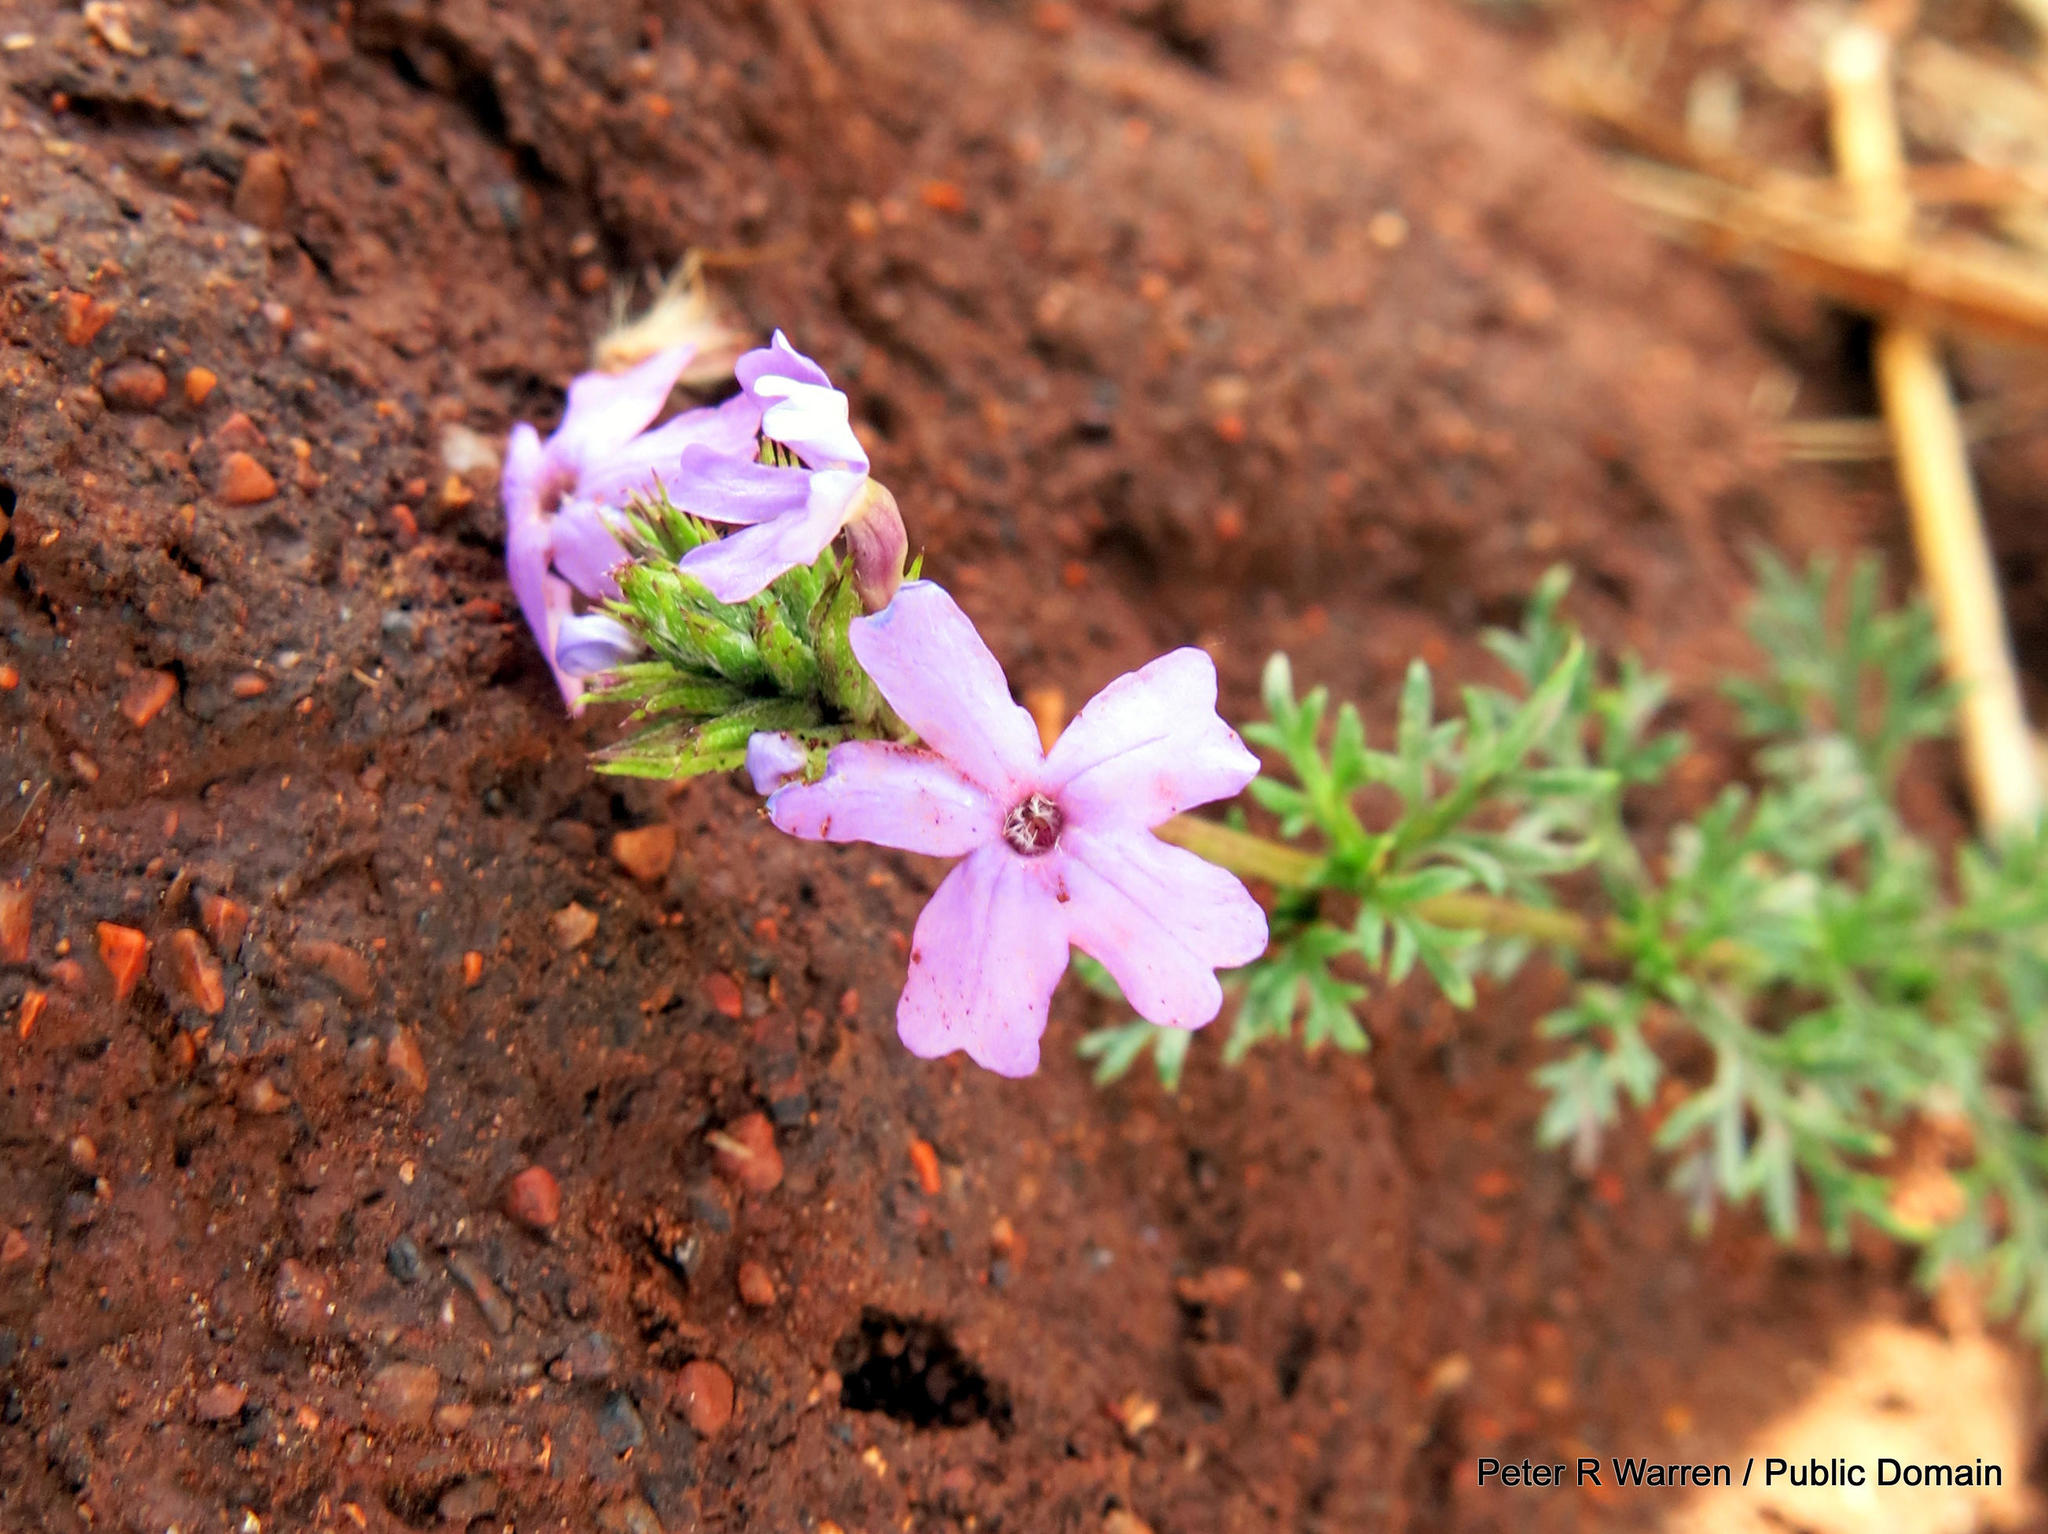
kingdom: Plantae
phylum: Tracheophyta
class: Magnoliopsida
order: Lamiales
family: Verbenaceae
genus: Verbena
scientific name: Verbena aristigera
